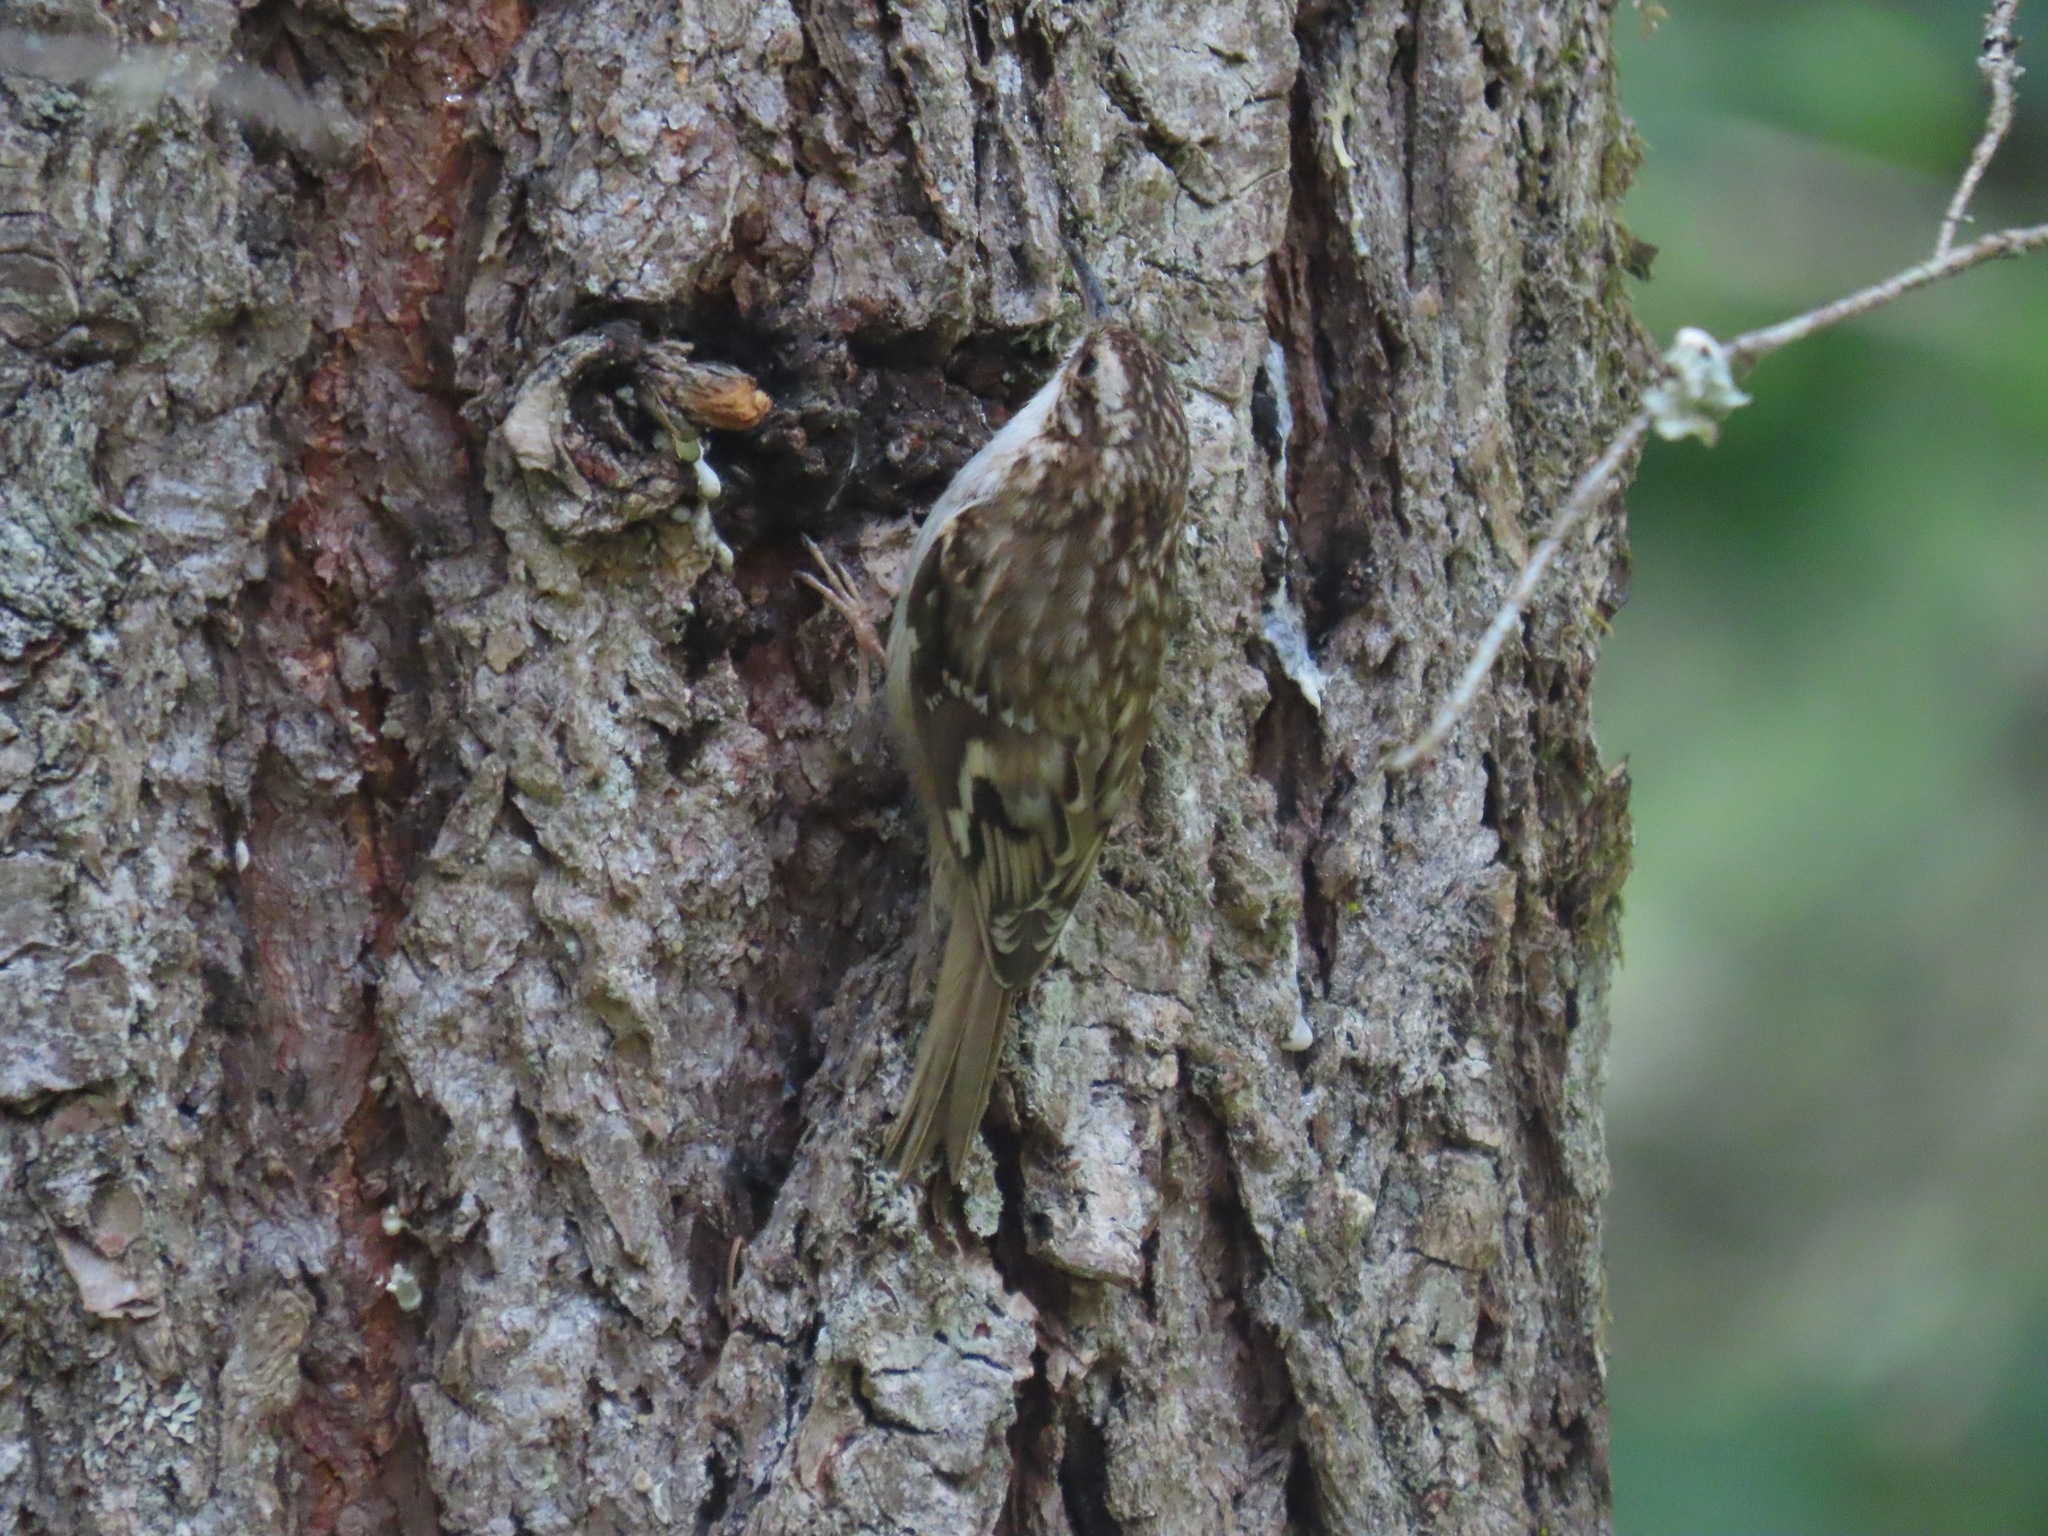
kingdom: Animalia
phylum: Chordata
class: Aves
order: Passeriformes
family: Certhiidae
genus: Certhia
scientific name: Certhia americana
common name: Brown creeper
